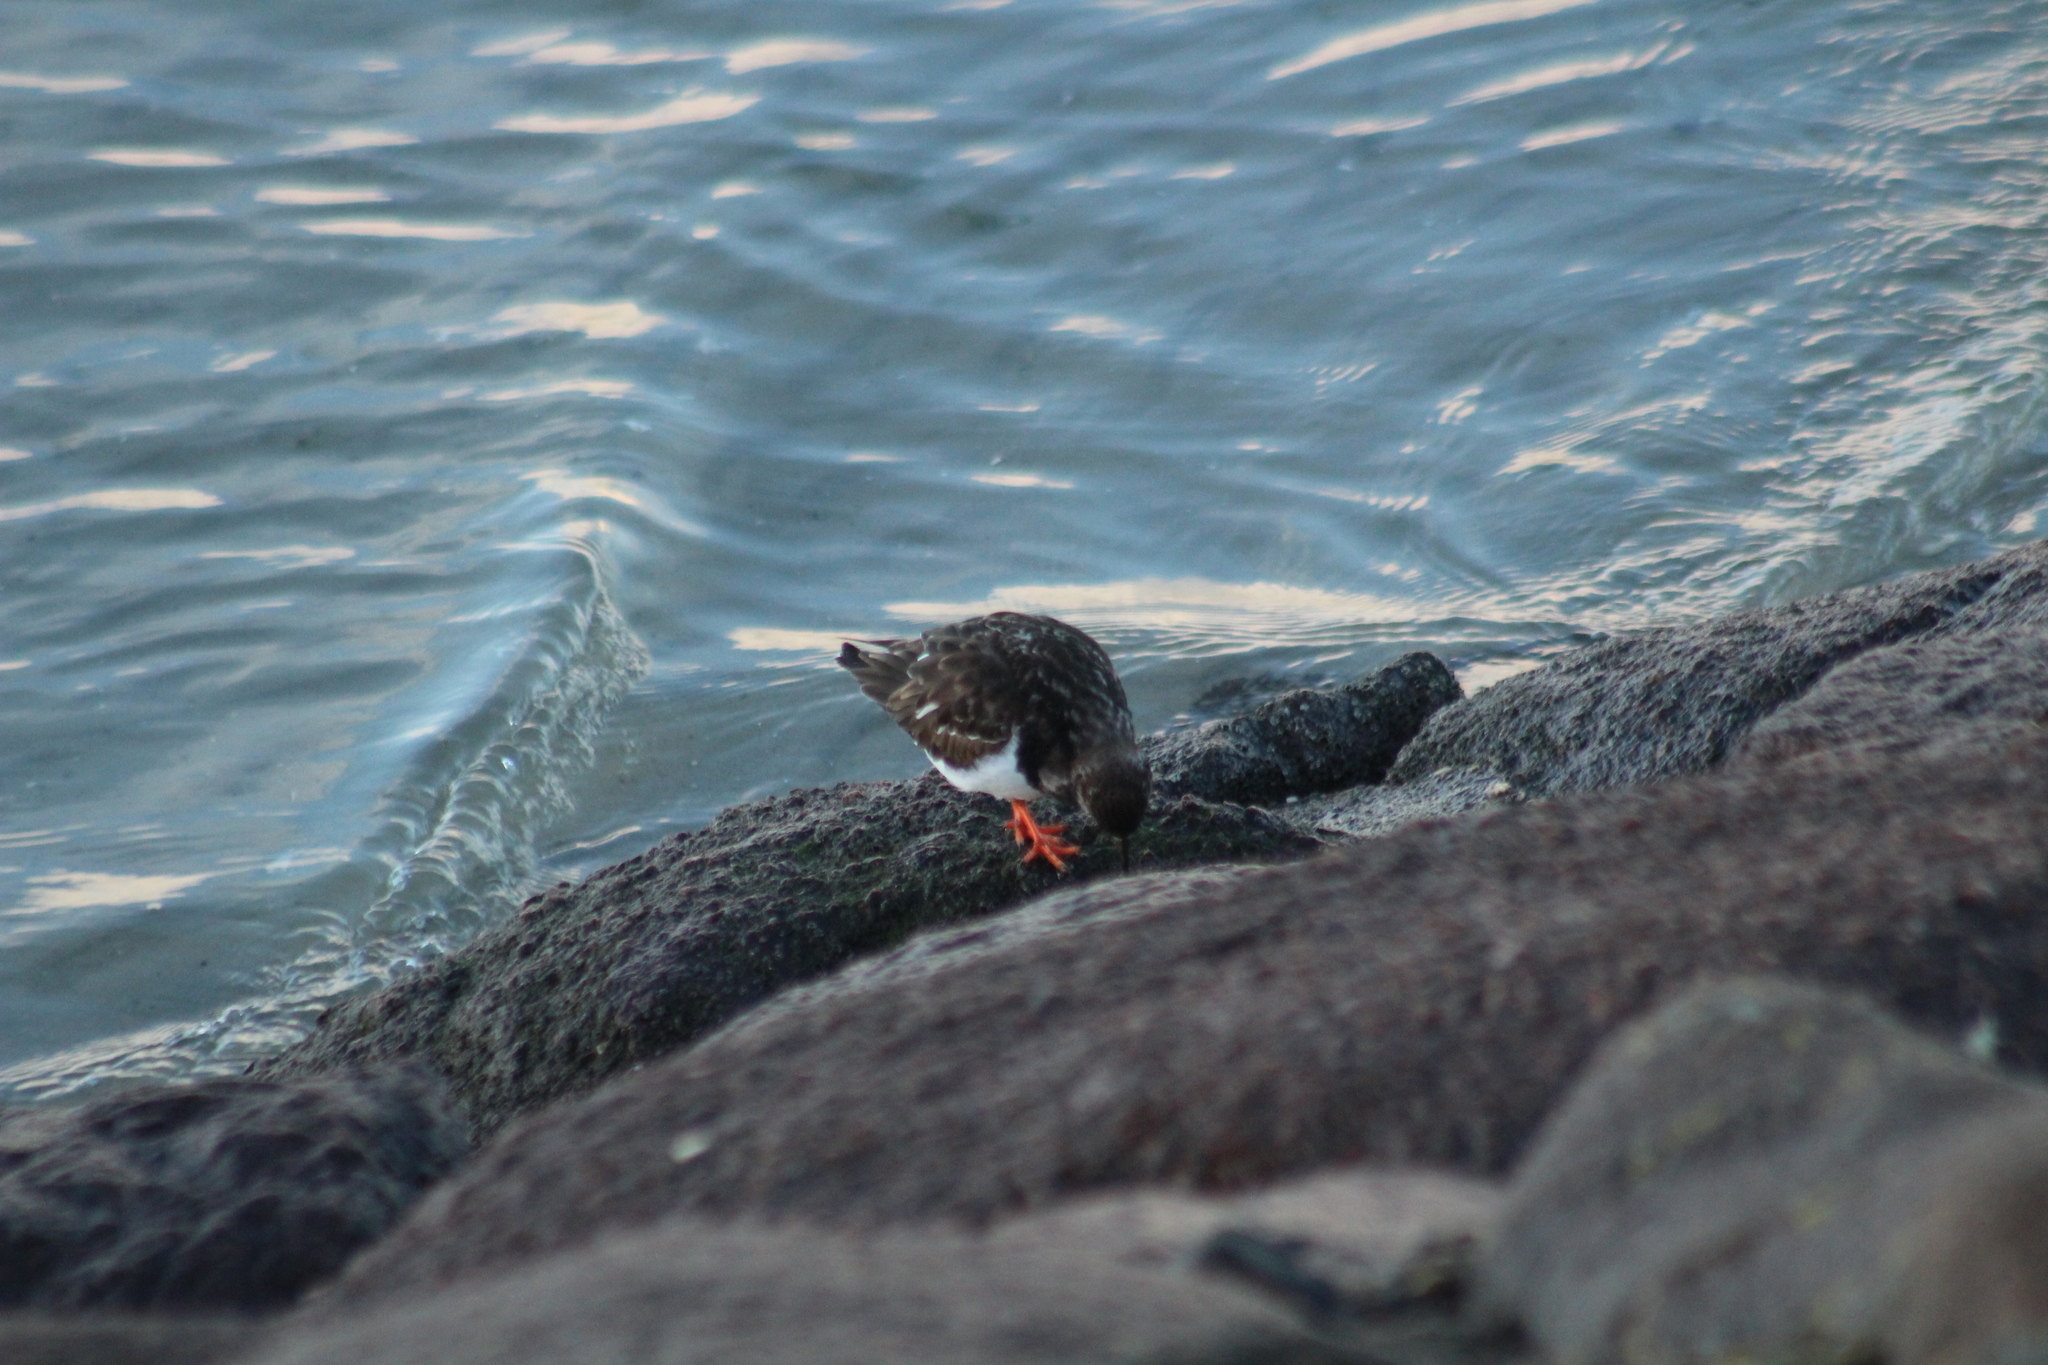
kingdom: Animalia
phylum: Chordata
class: Aves
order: Charadriiformes
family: Scolopacidae
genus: Arenaria
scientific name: Arenaria interpres
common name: Ruddy turnstone
